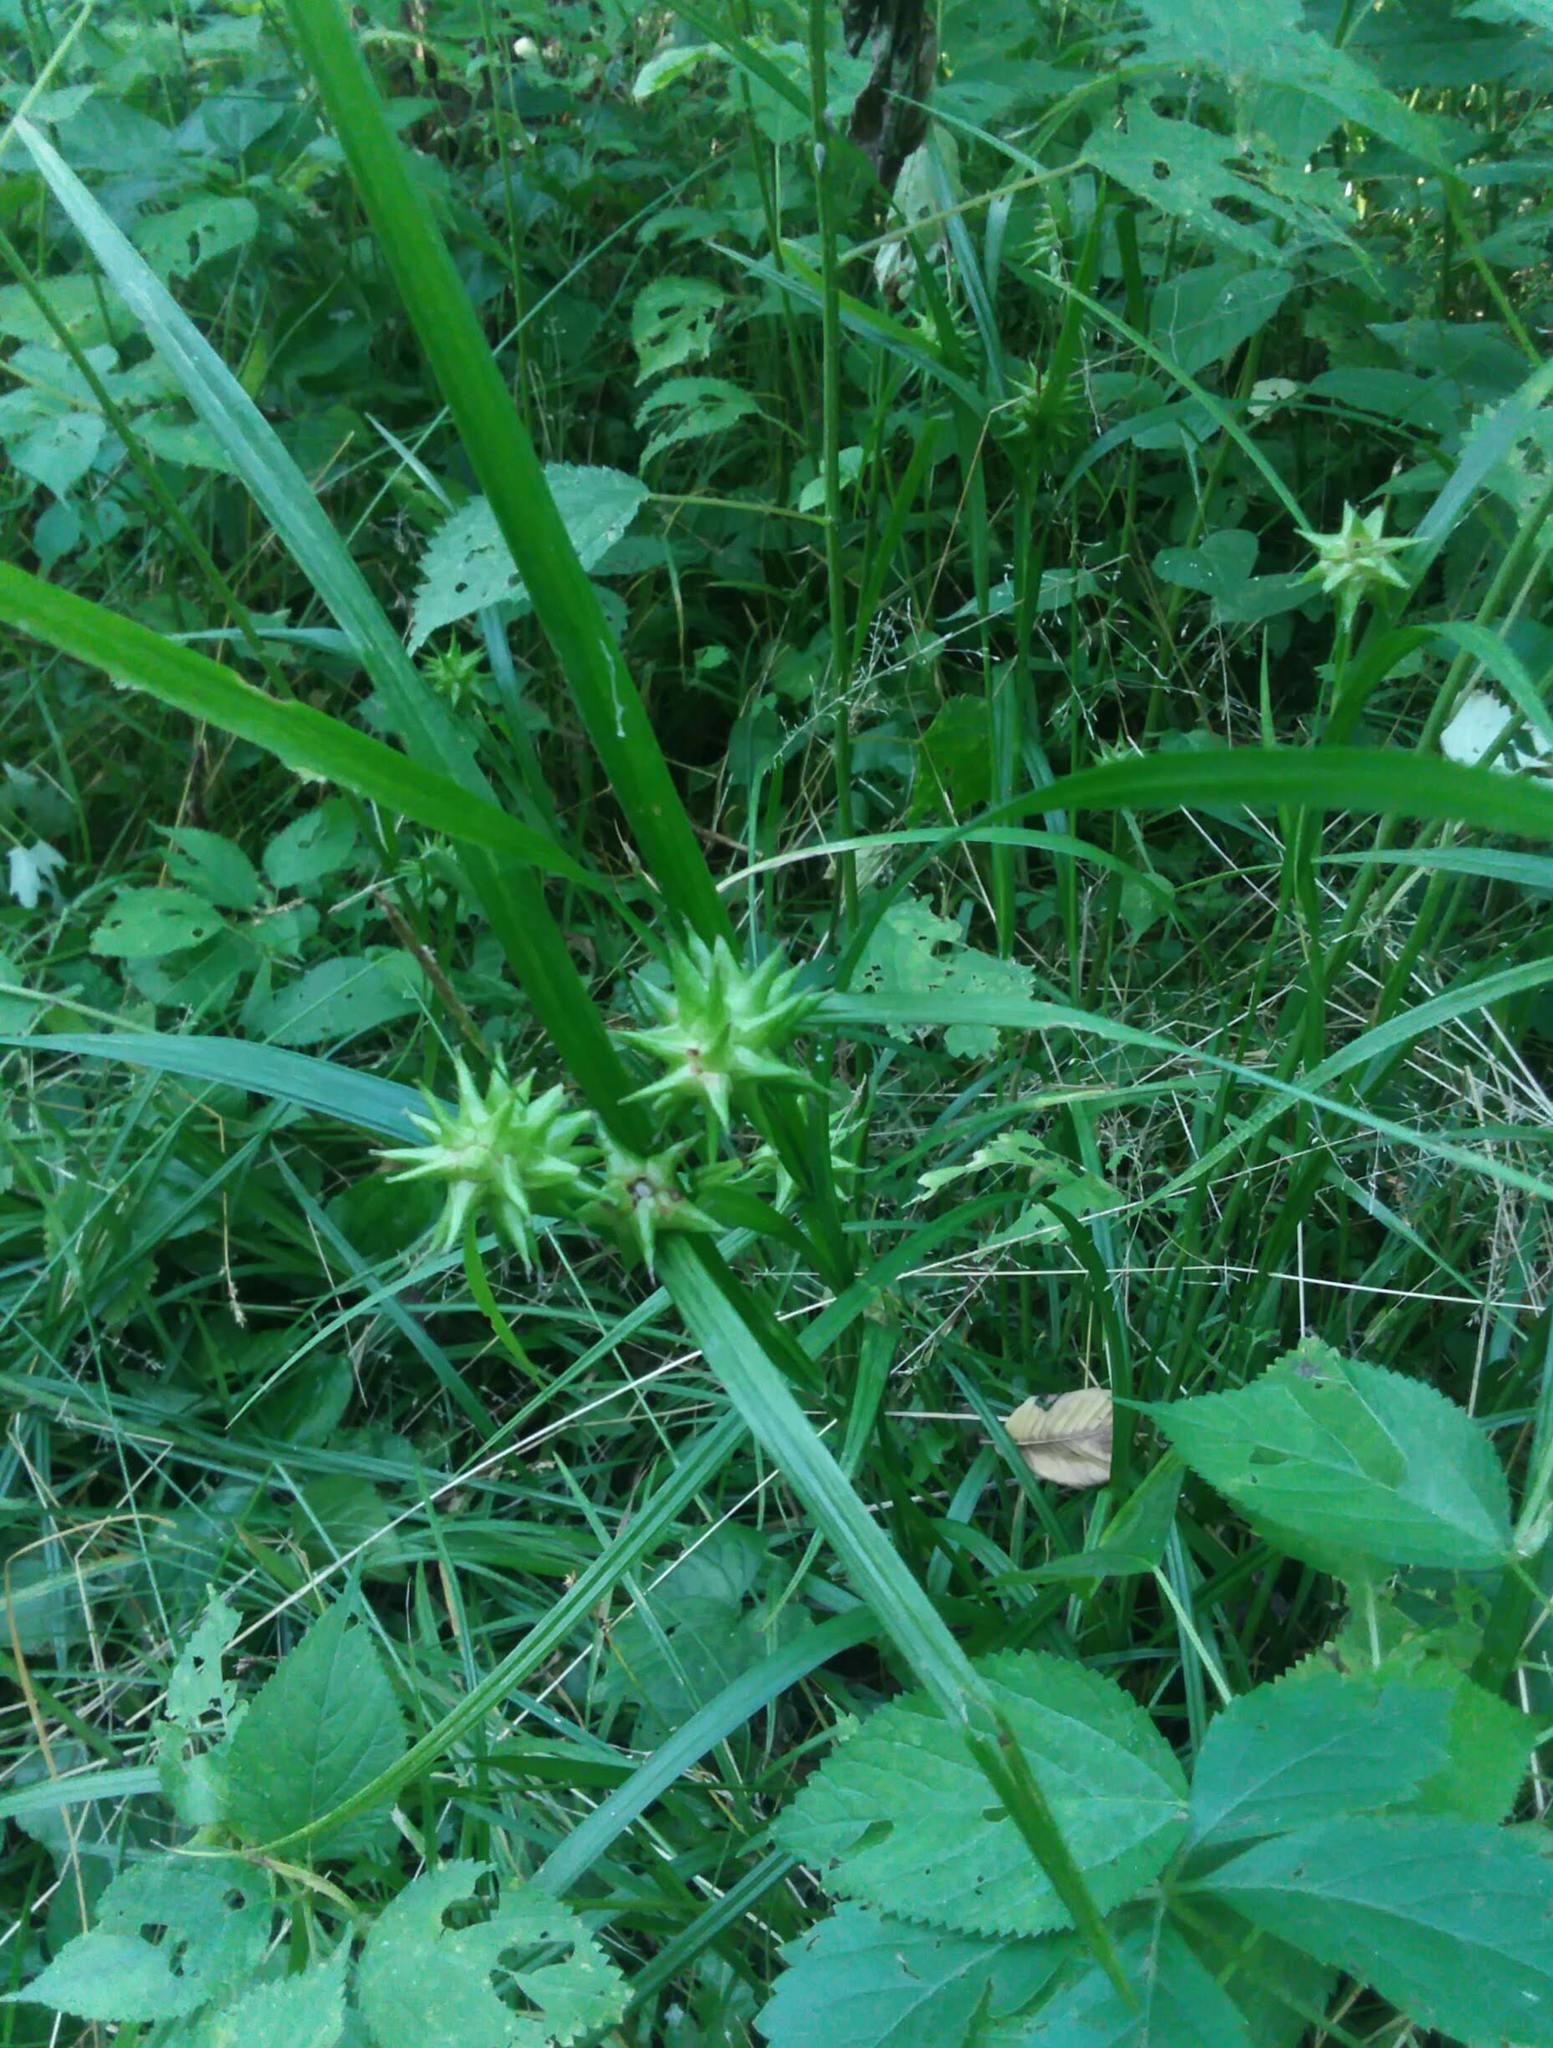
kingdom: Plantae
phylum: Tracheophyta
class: Liliopsida
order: Poales
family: Cyperaceae
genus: Carex
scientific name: Carex grayi
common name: Asa gray's sedge
